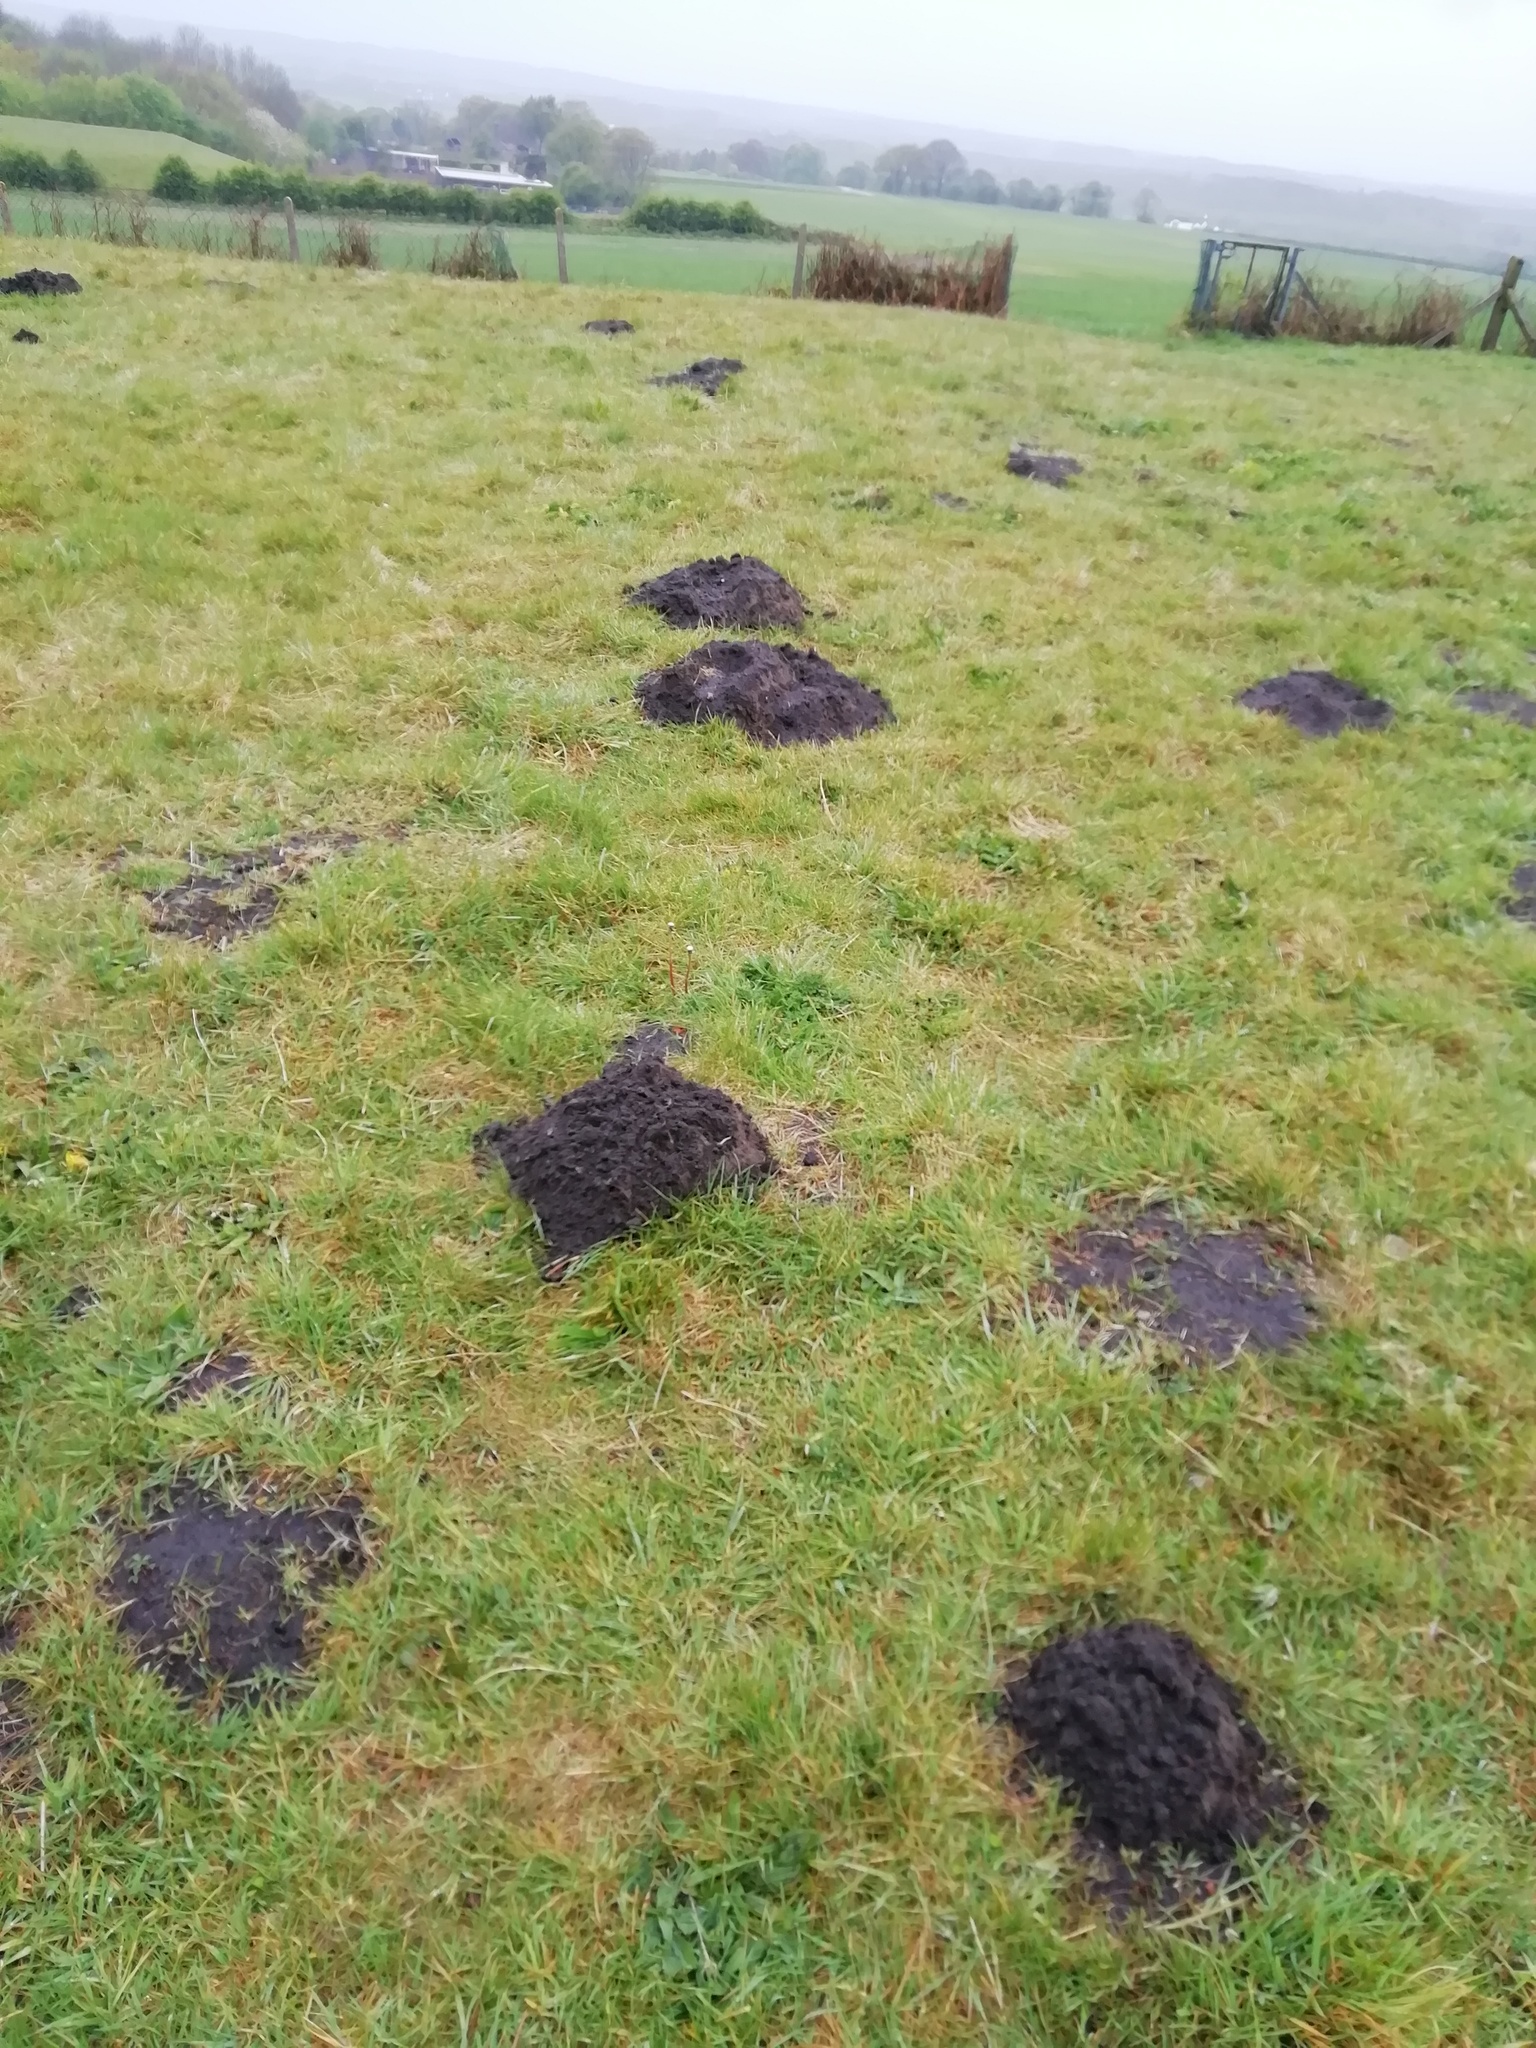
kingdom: Animalia
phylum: Chordata
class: Mammalia
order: Soricomorpha
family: Talpidae
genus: Talpa
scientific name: Talpa europaea
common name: European mole
